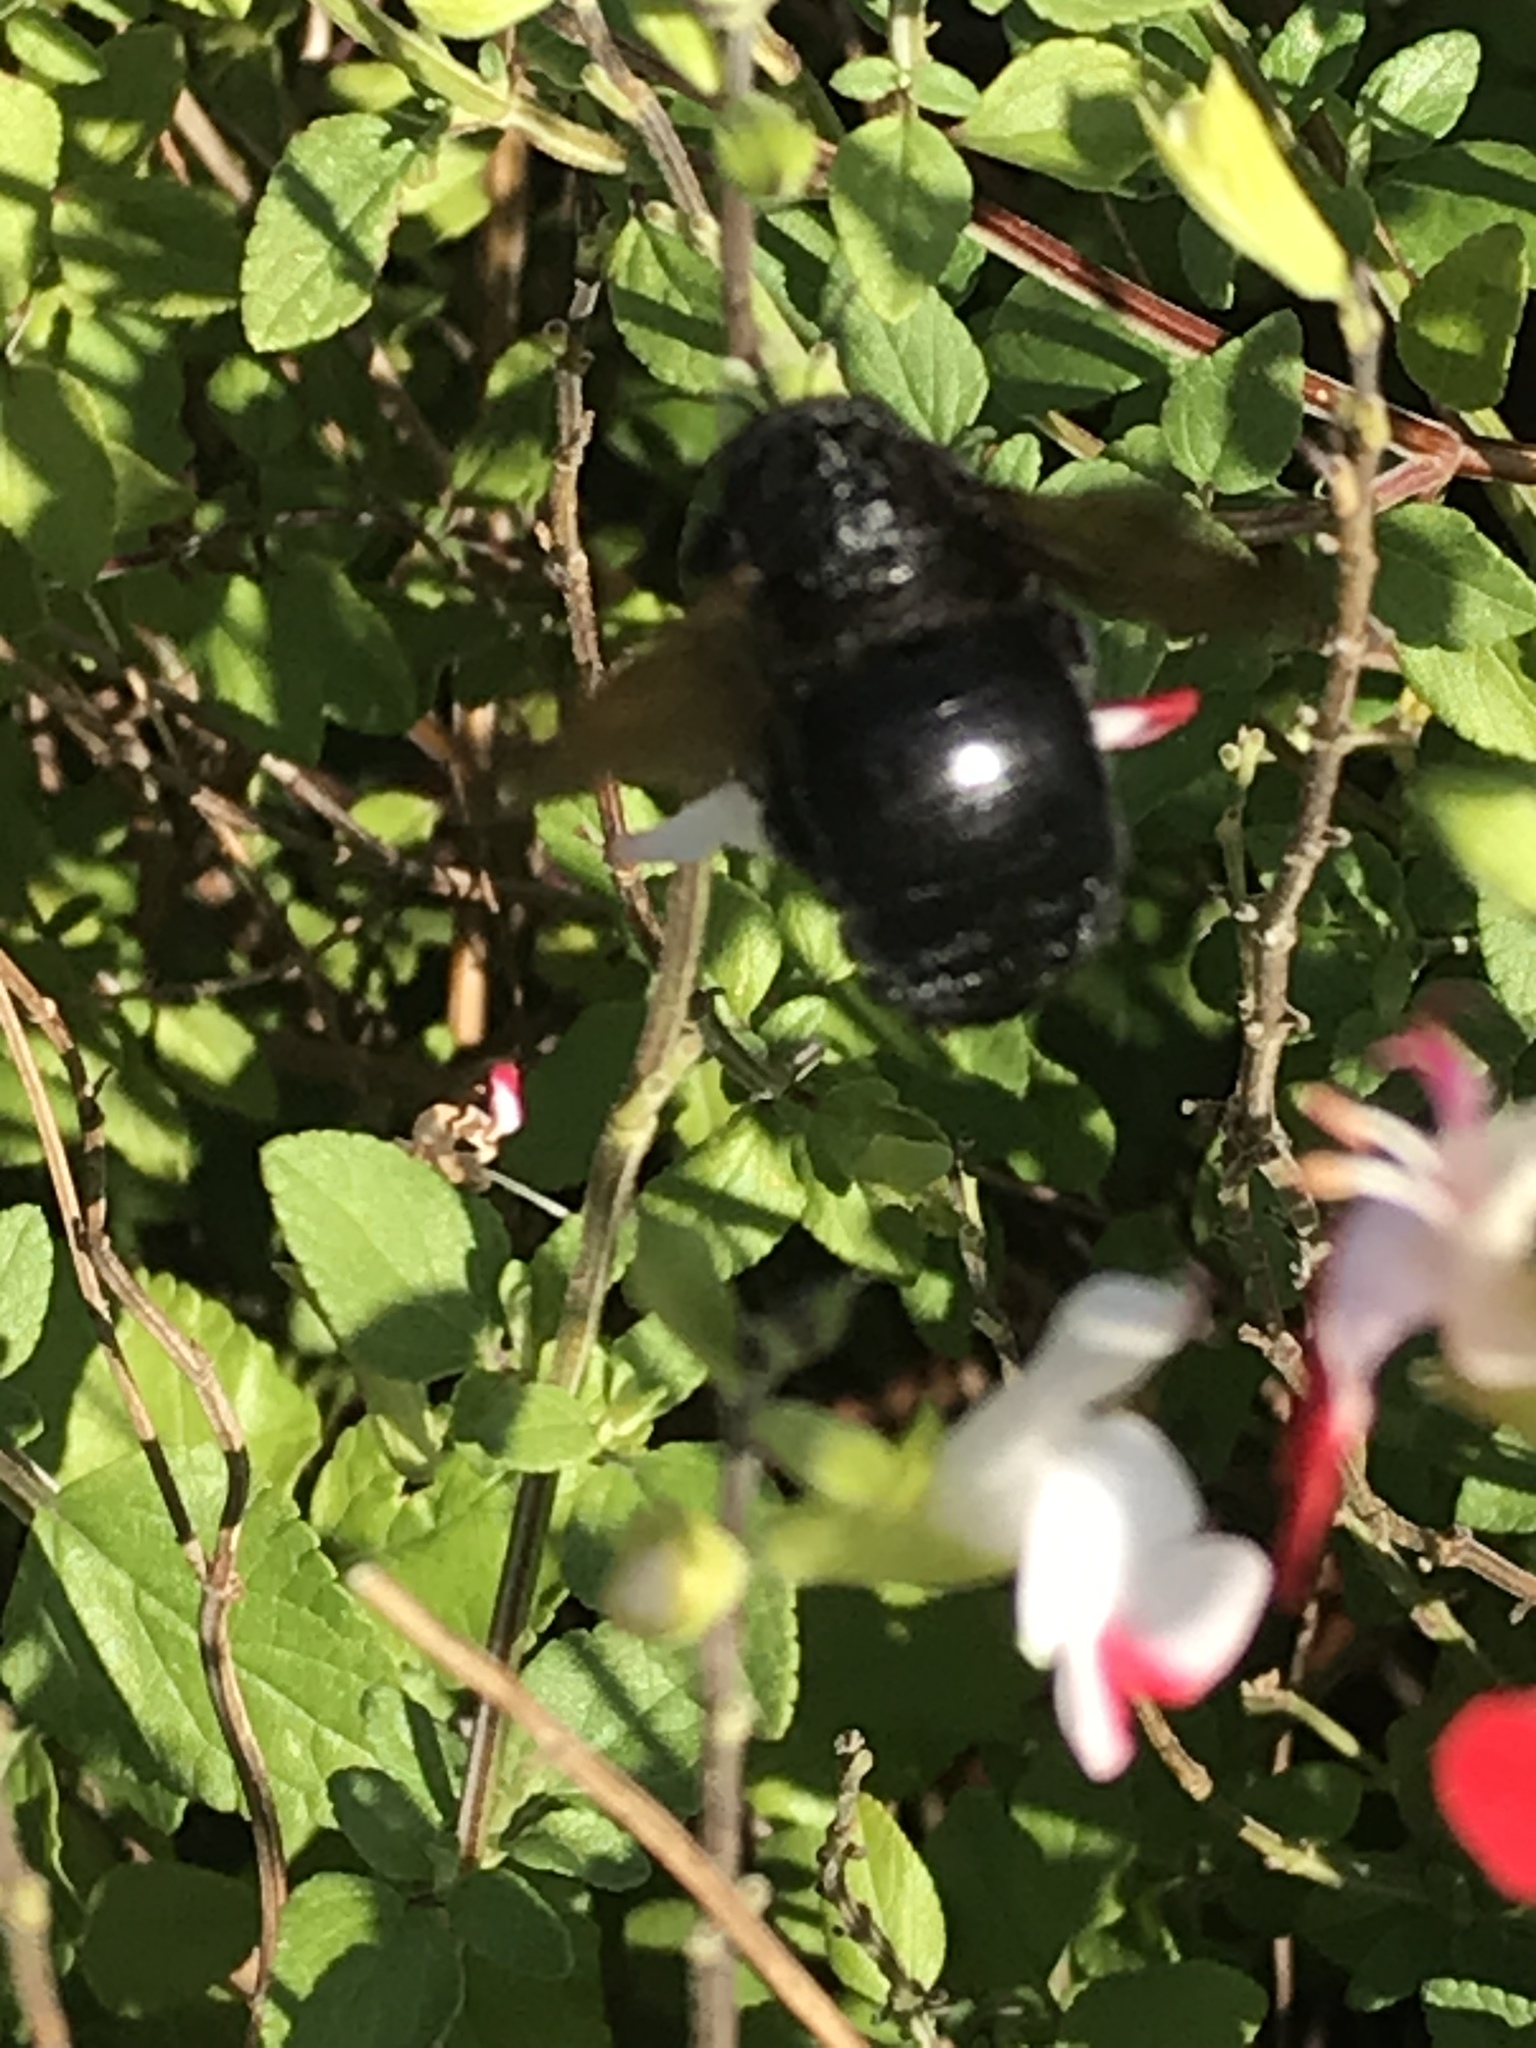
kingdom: Animalia
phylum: Arthropoda
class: Insecta
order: Hymenoptera
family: Apidae
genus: Xylocopa
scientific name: Xylocopa sonorina
